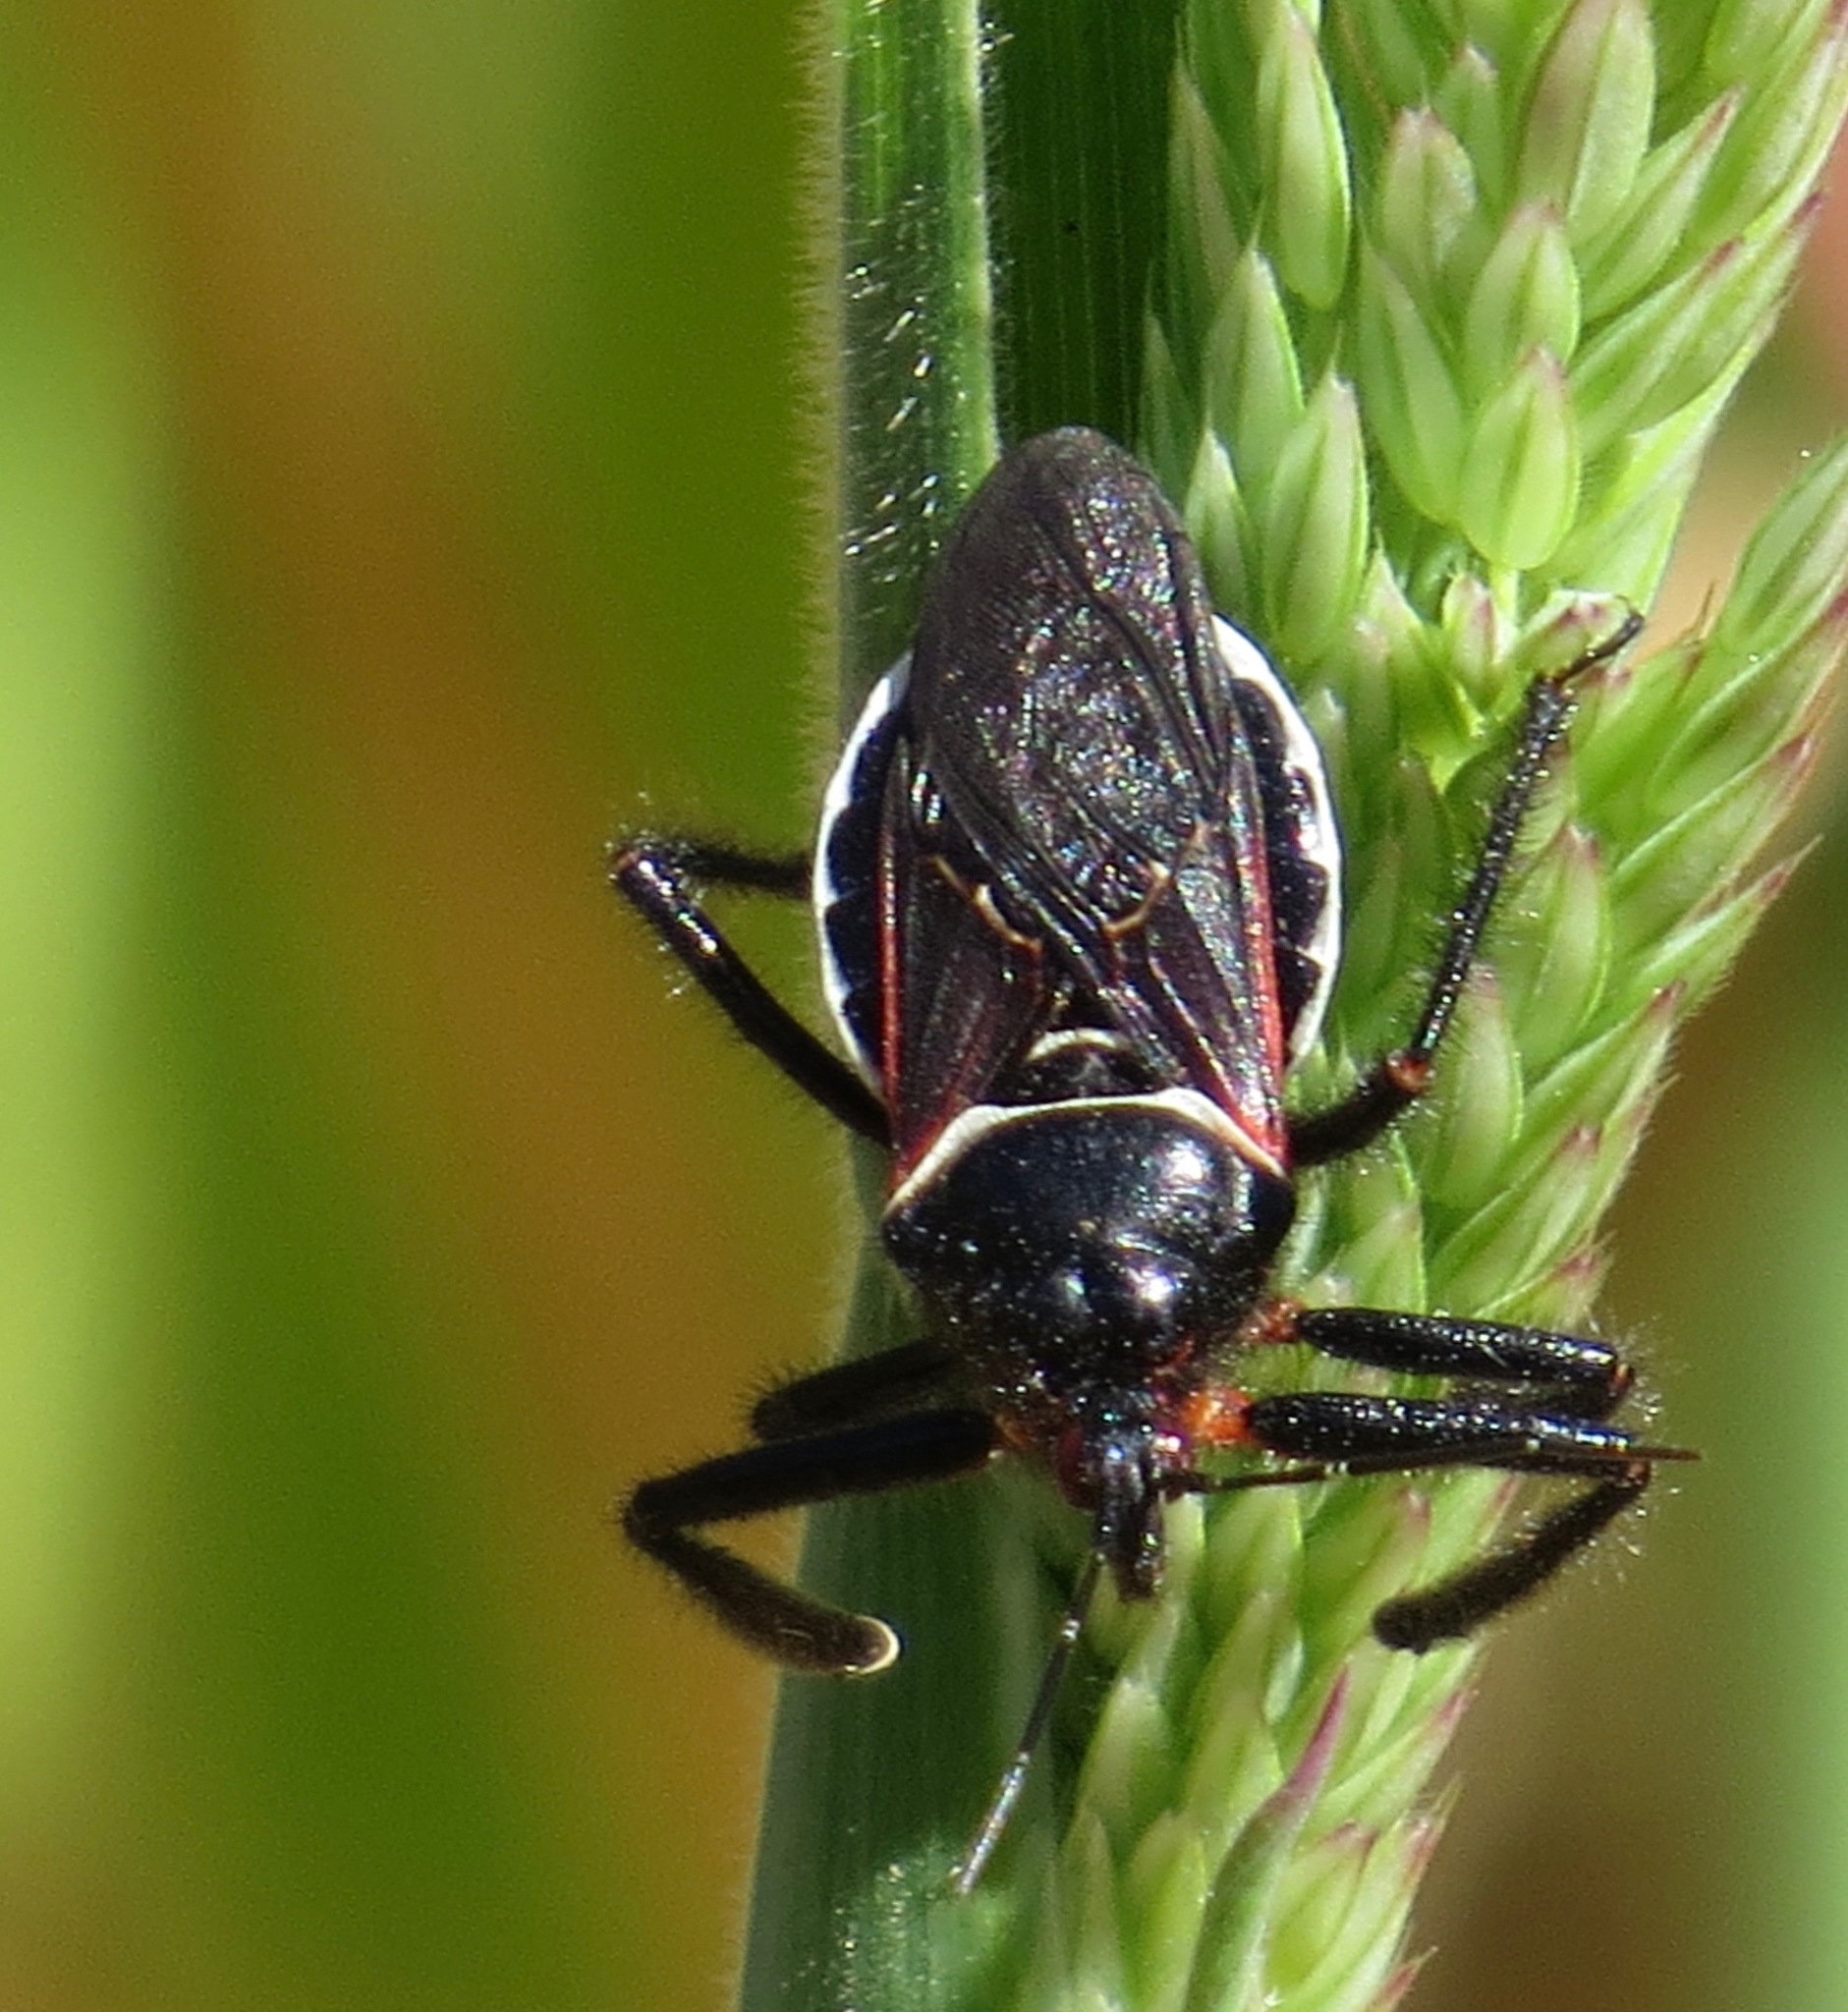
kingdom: Animalia
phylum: Arthropoda
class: Insecta
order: Hemiptera
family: Reduviidae
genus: Apiomerus
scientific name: Apiomerus californicus
